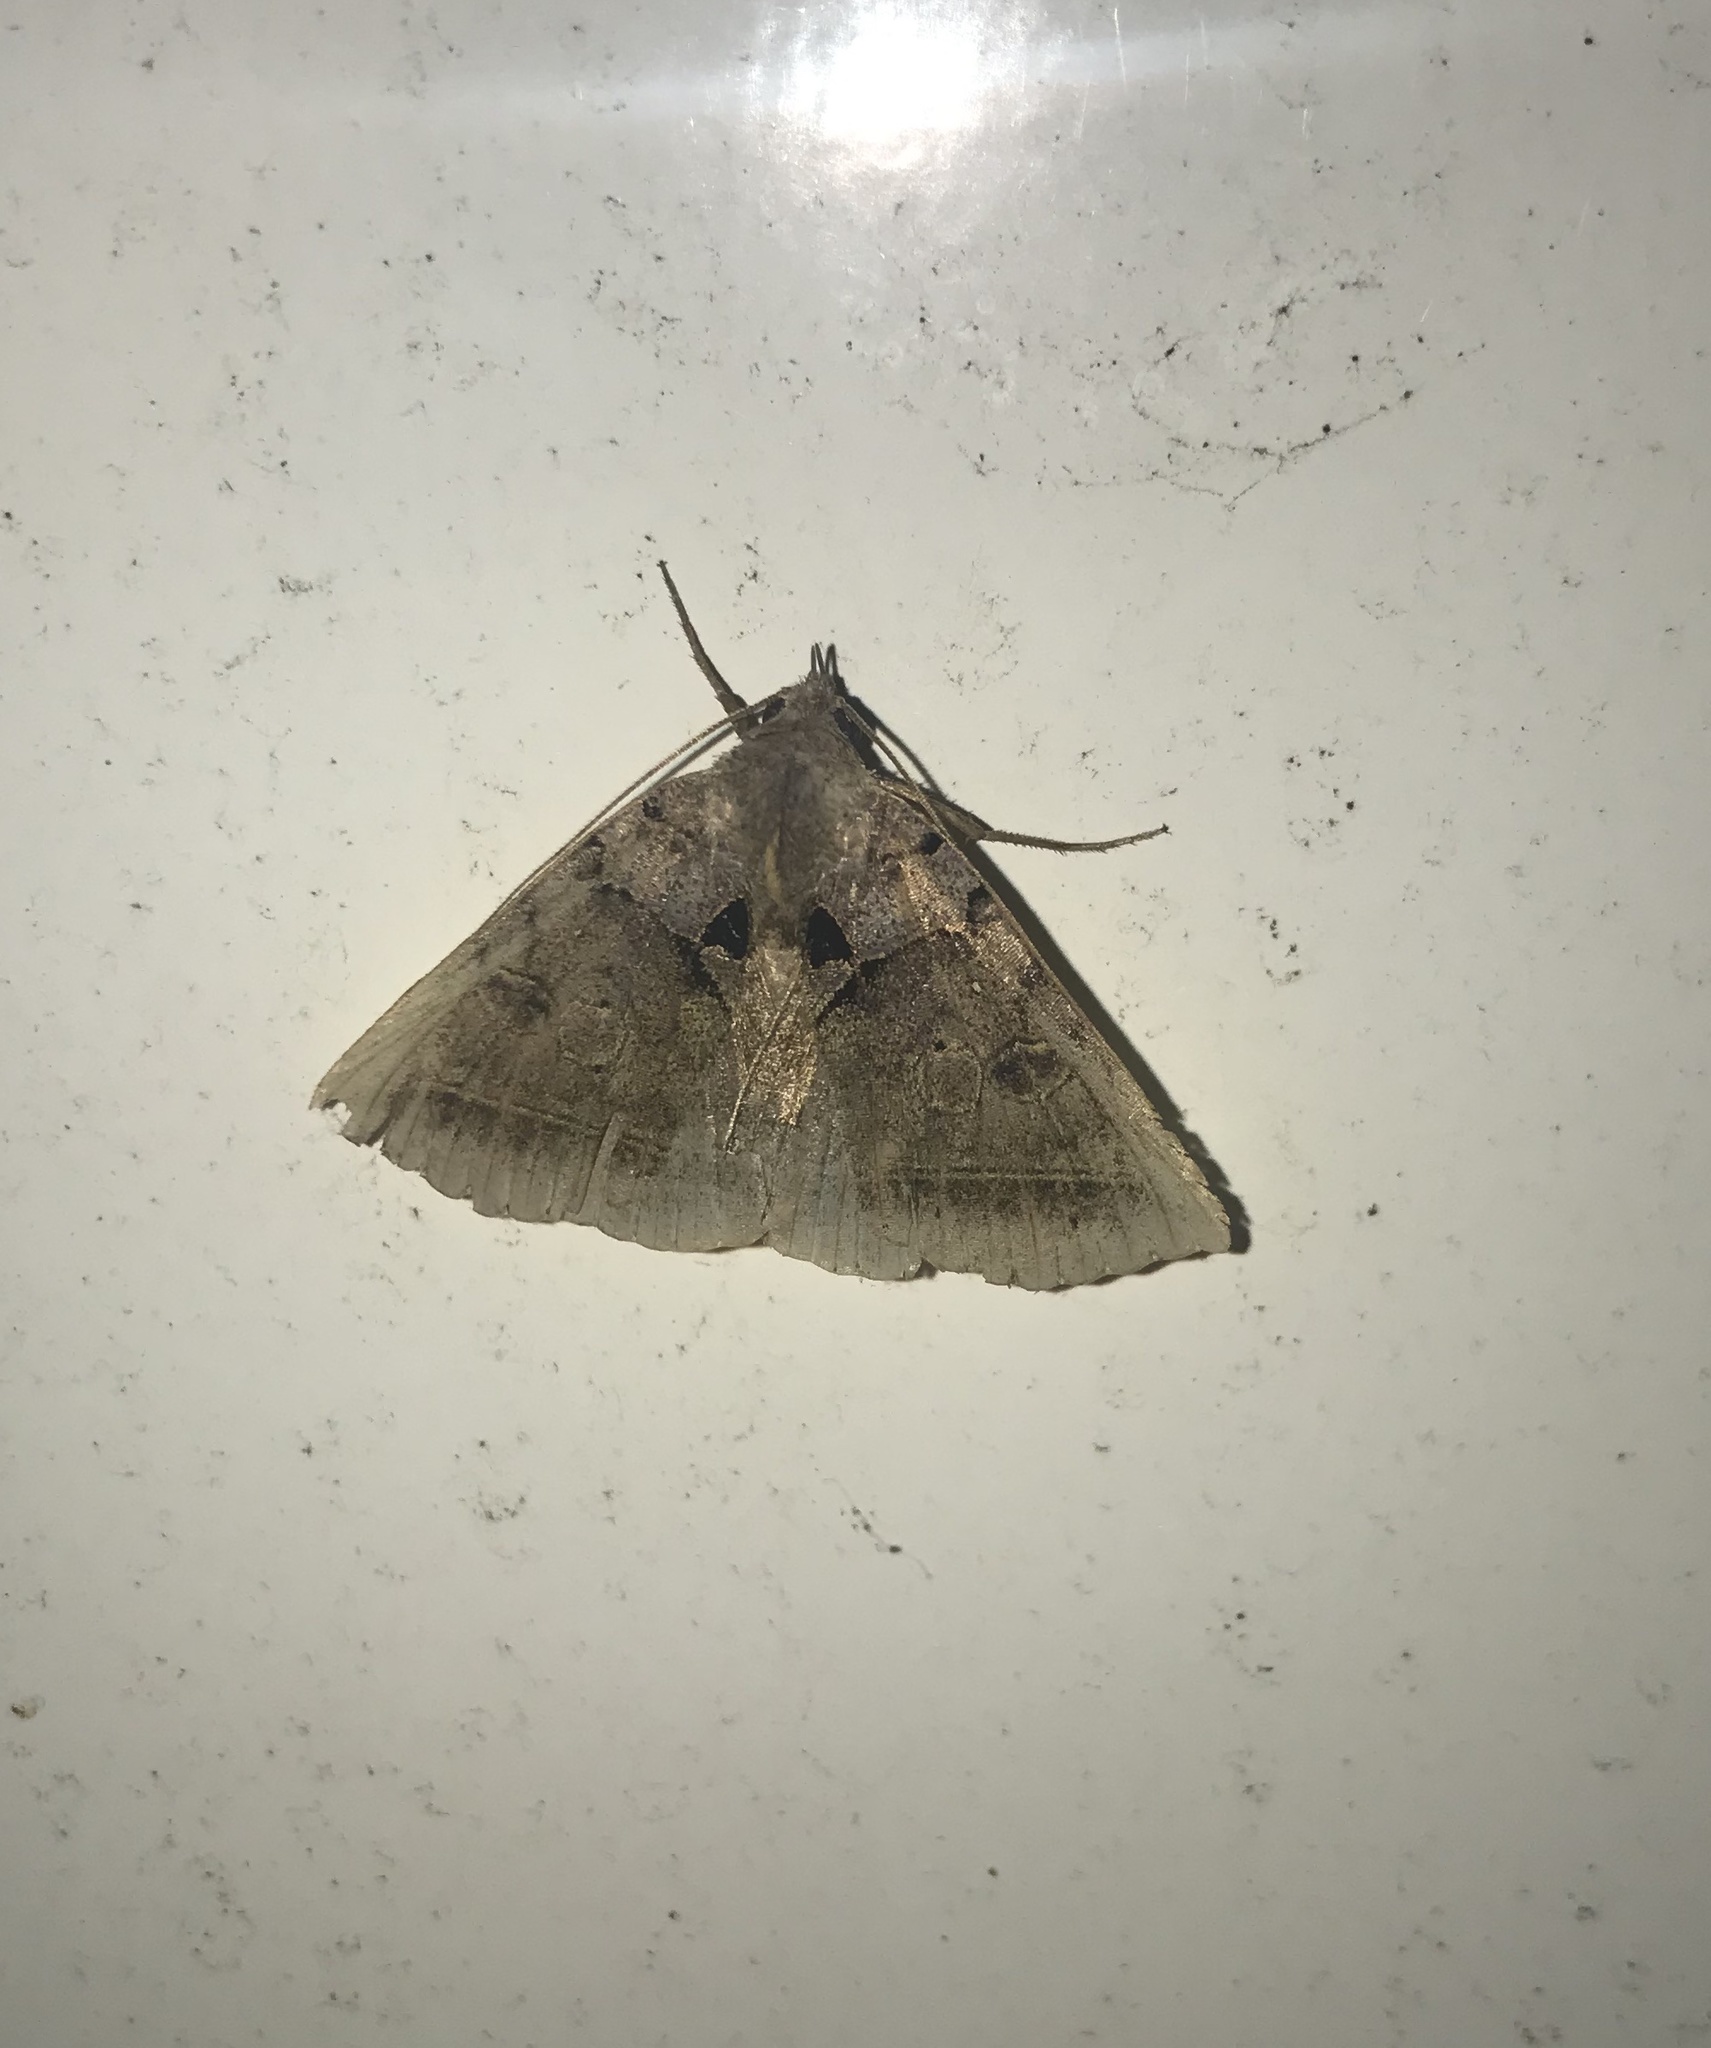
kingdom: Animalia
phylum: Arthropoda
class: Insecta
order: Lepidoptera
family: Erebidae
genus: Celiptera
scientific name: Celiptera frustulum
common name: Black bit moth
